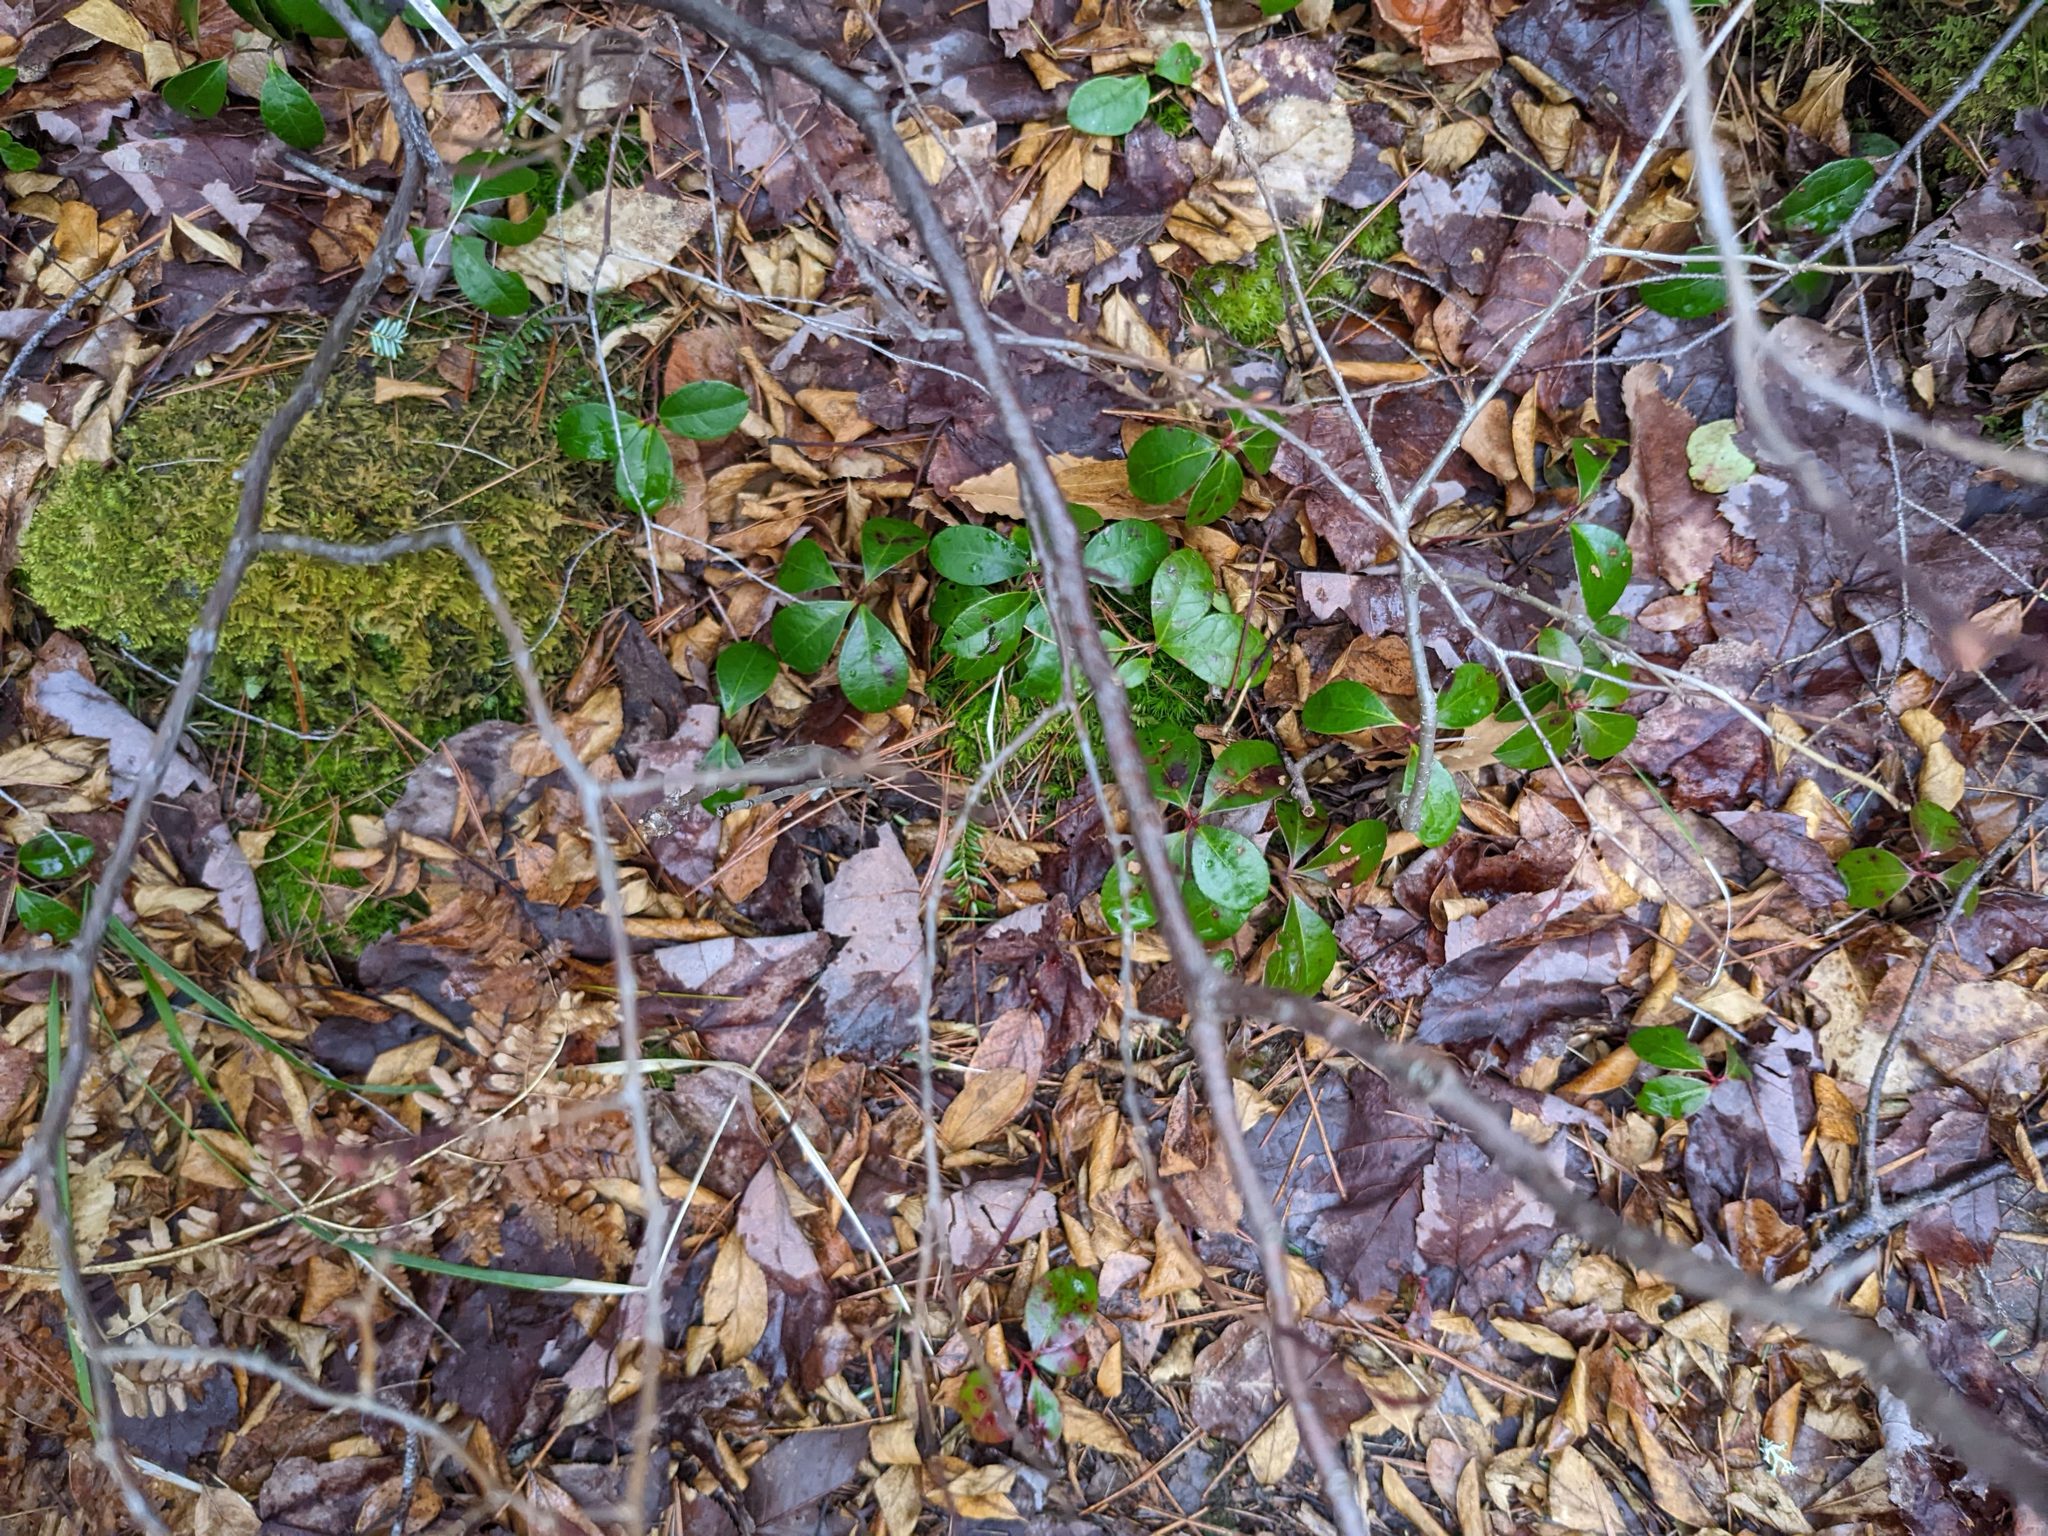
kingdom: Plantae
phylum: Tracheophyta
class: Magnoliopsida
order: Ericales
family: Ericaceae
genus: Gaultheria
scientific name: Gaultheria procumbens
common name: Checkerberry
